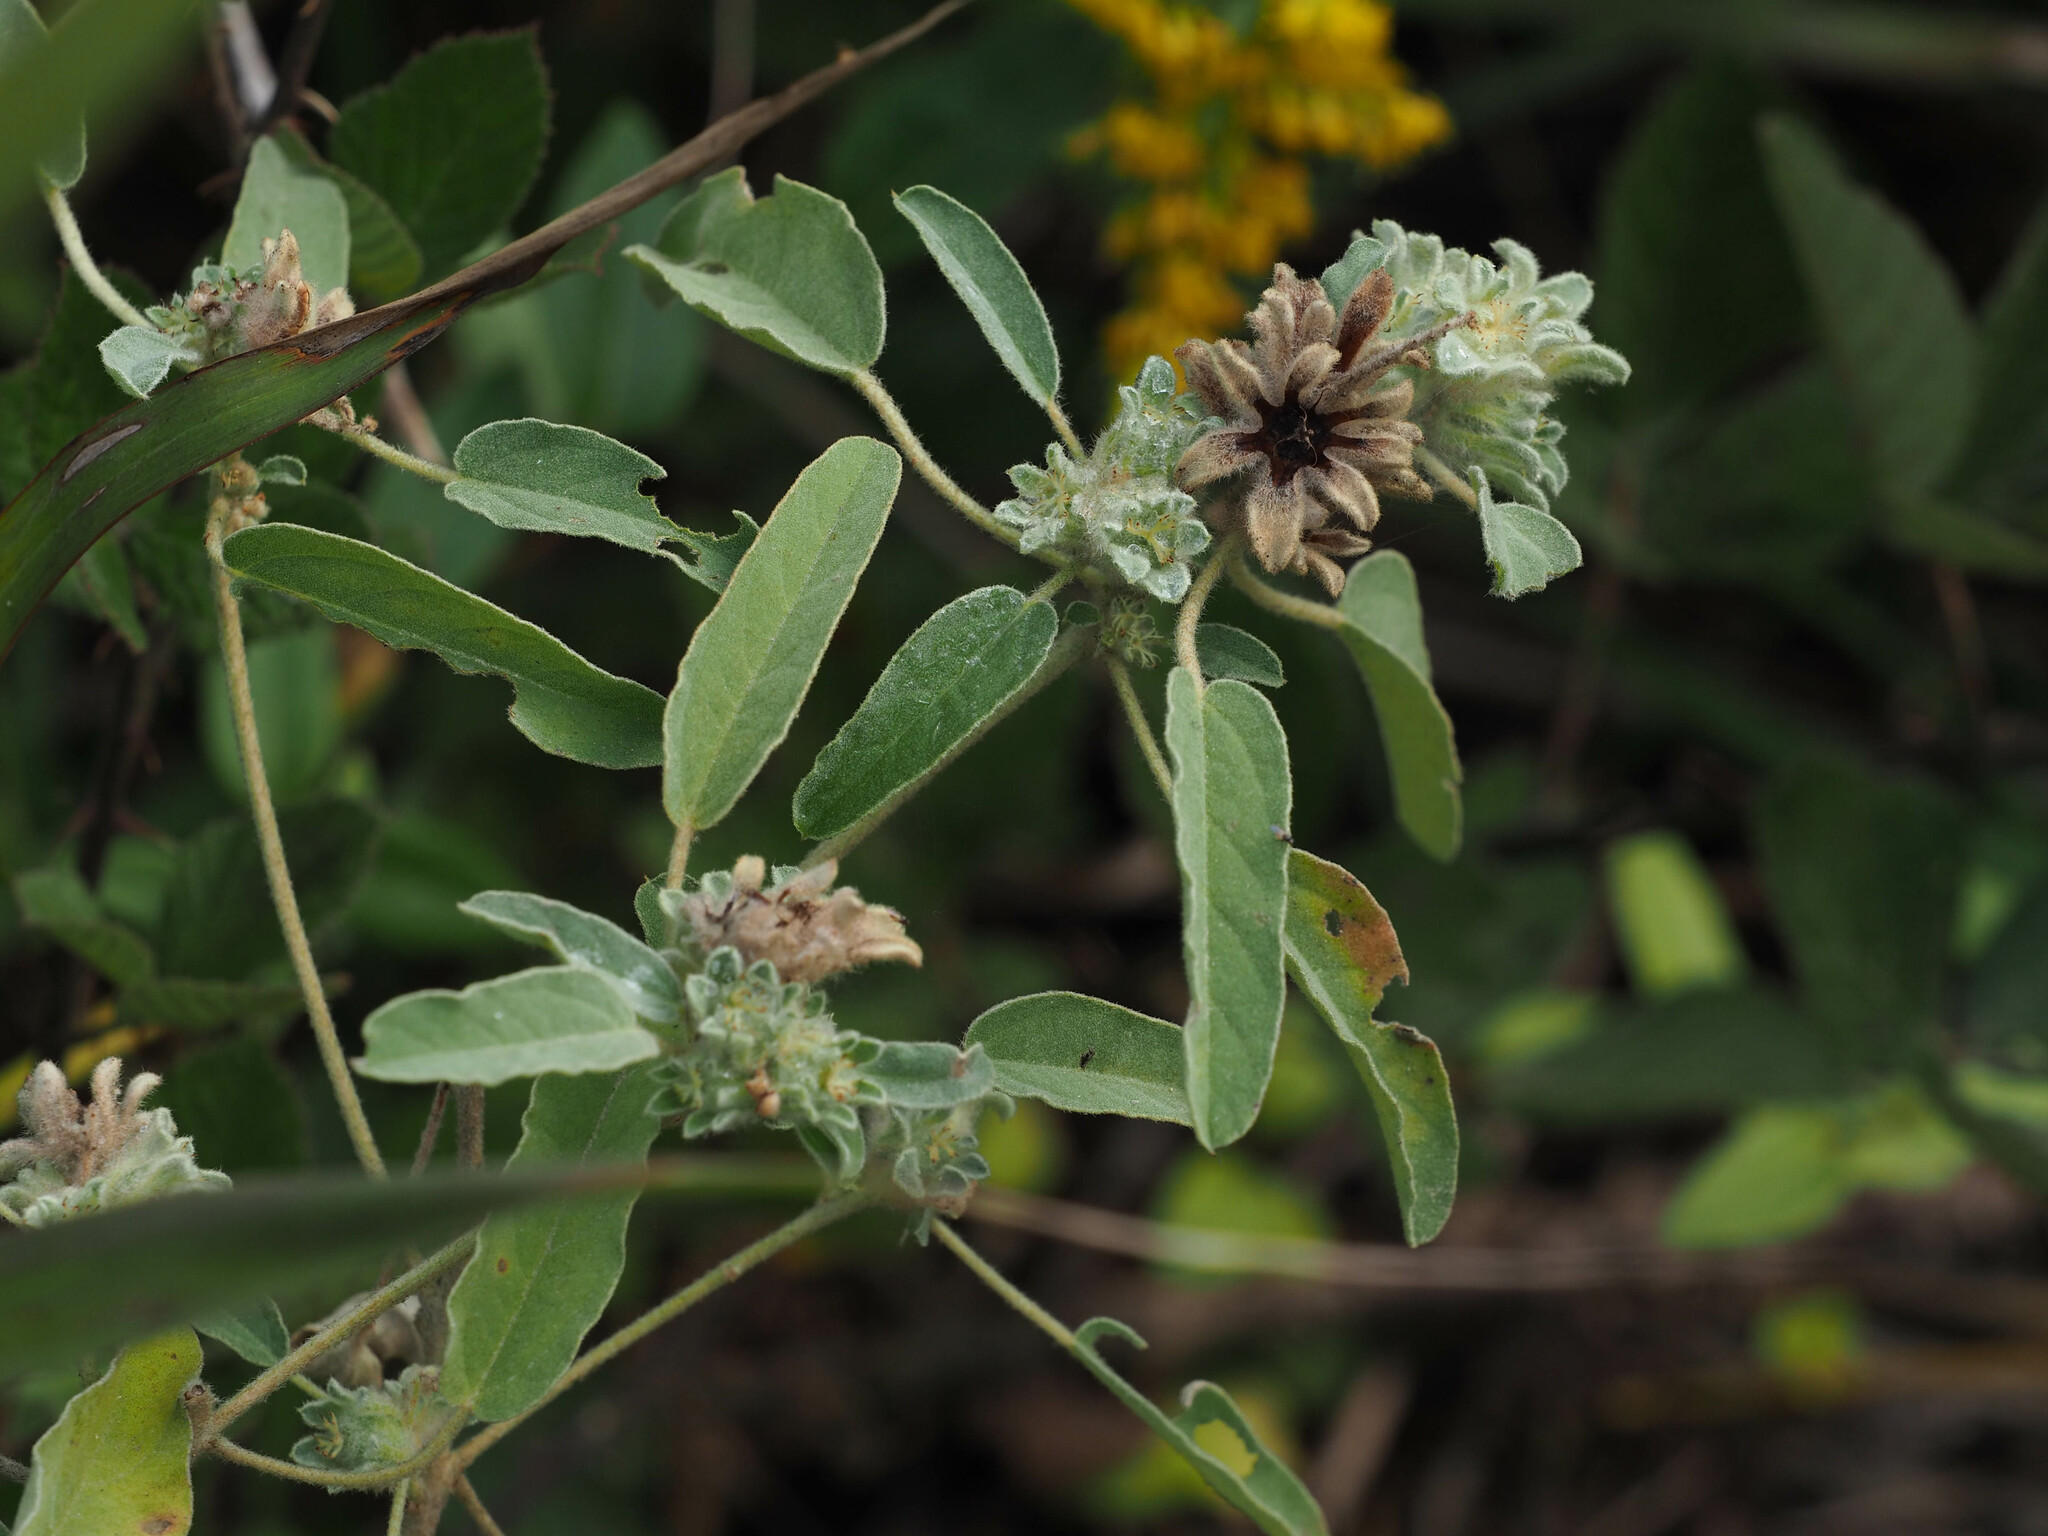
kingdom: Plantae
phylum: Tracheophyta
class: Magnoliopsida
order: Malpighiales
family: Euphorbiaceae
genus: Croton
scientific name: Croton capitatus
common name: Woolly croton
